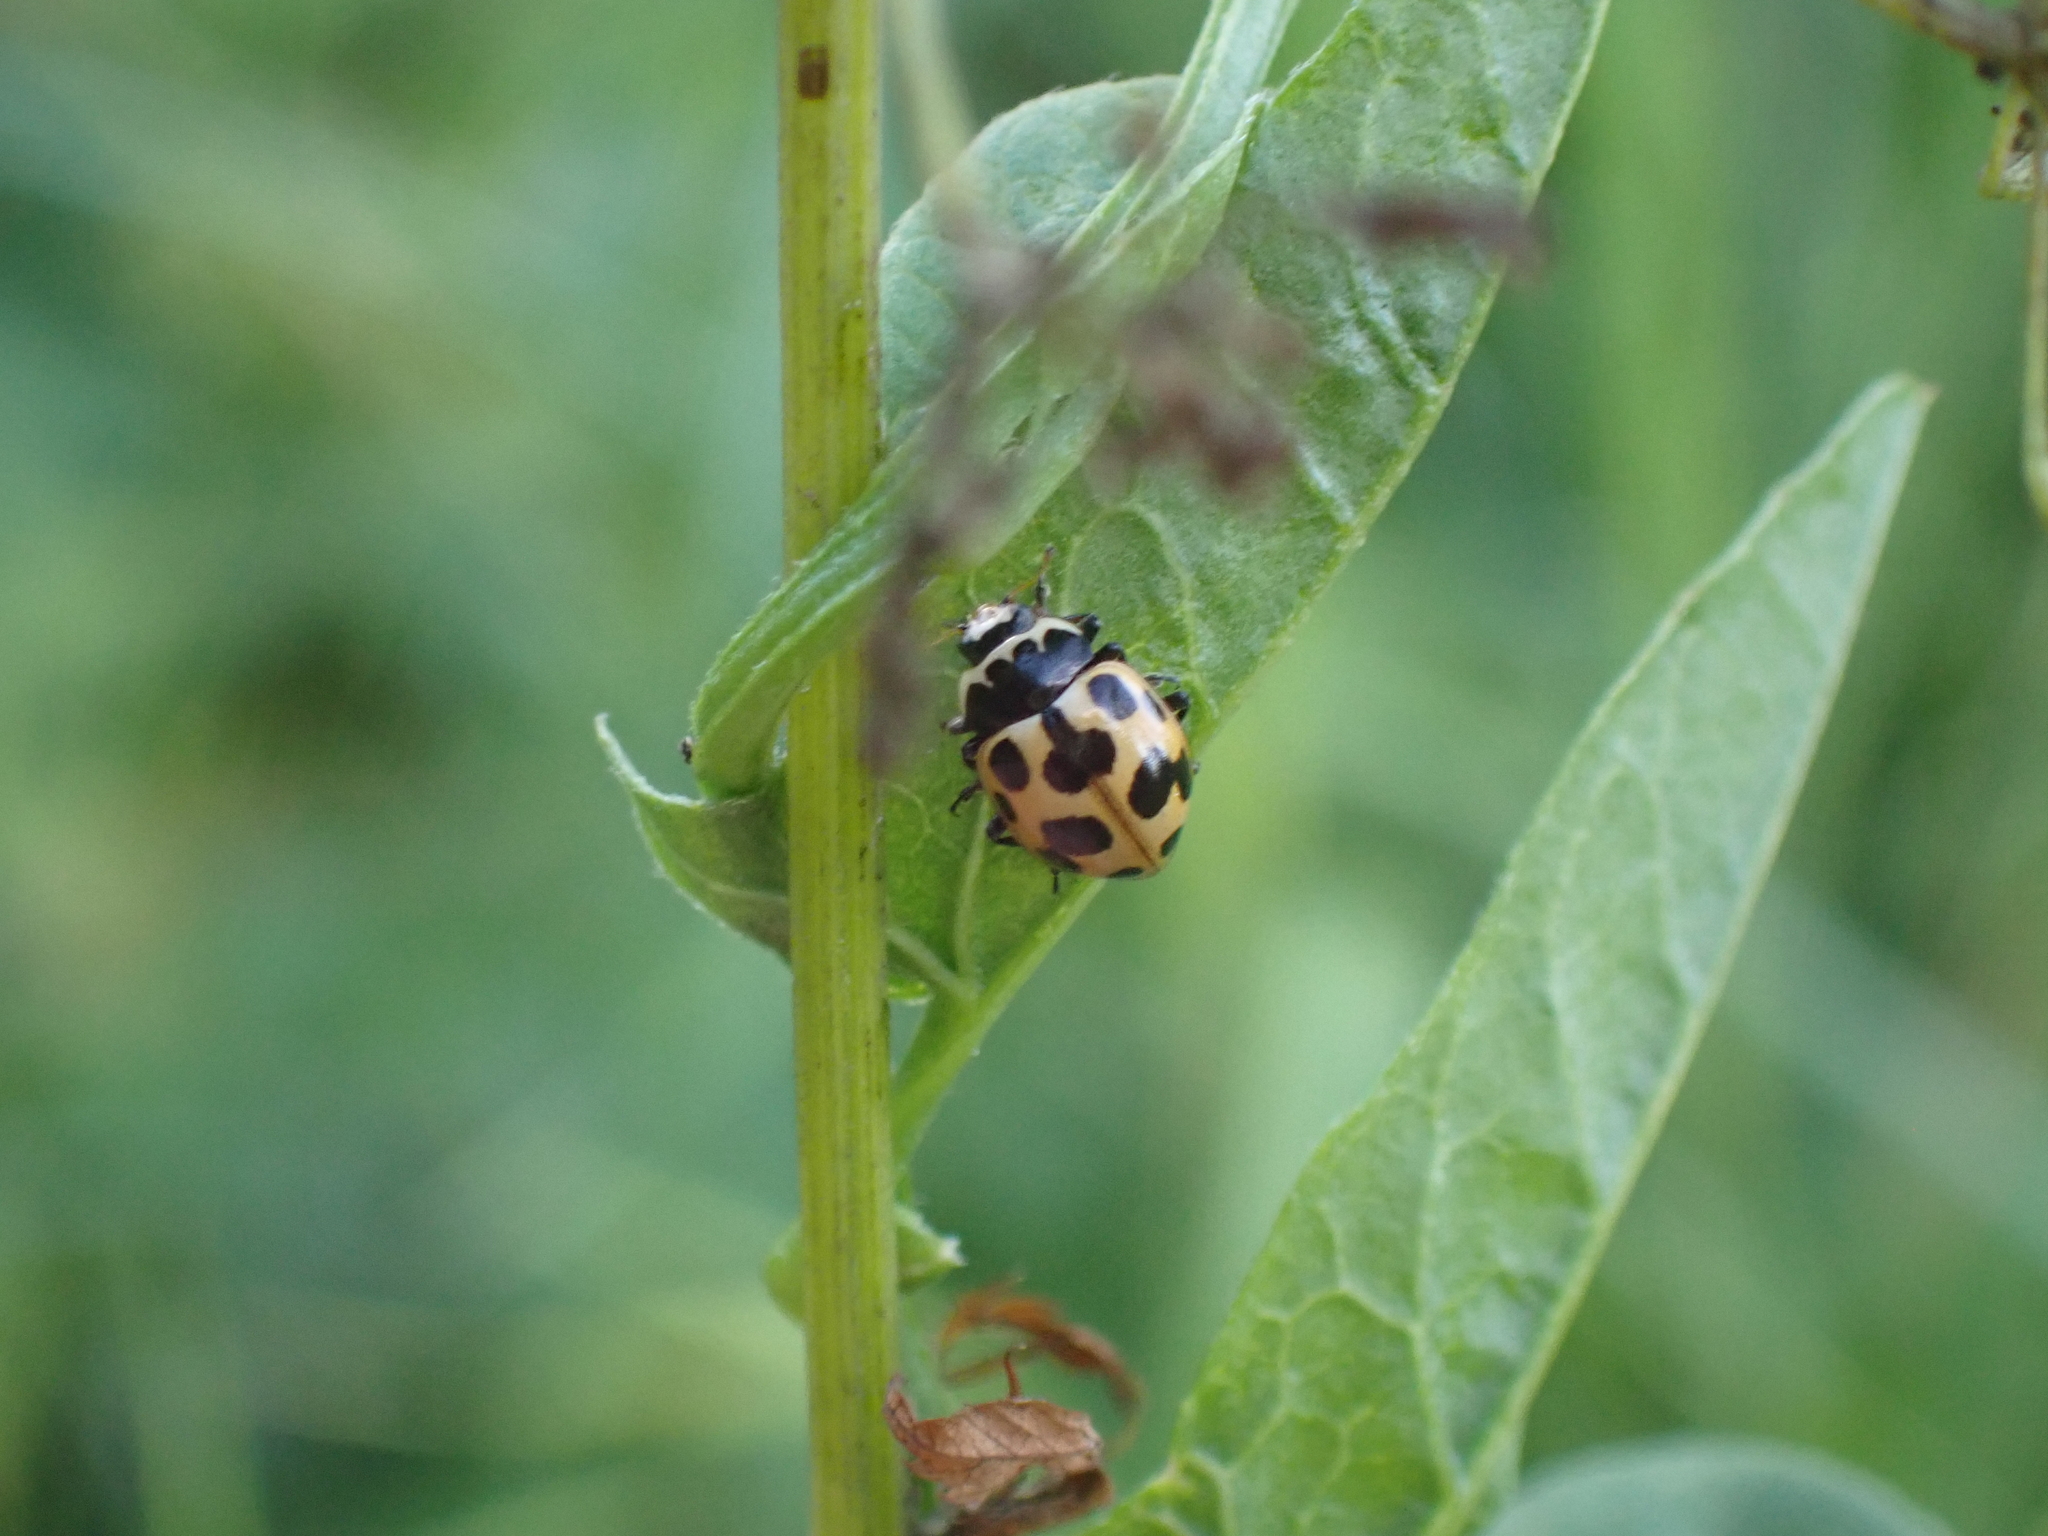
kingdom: Animalia
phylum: Arthropoda
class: Insecta
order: Coleoptera
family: Coccinellidae
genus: Ceratomegilla
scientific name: Ceratomegilla notata
